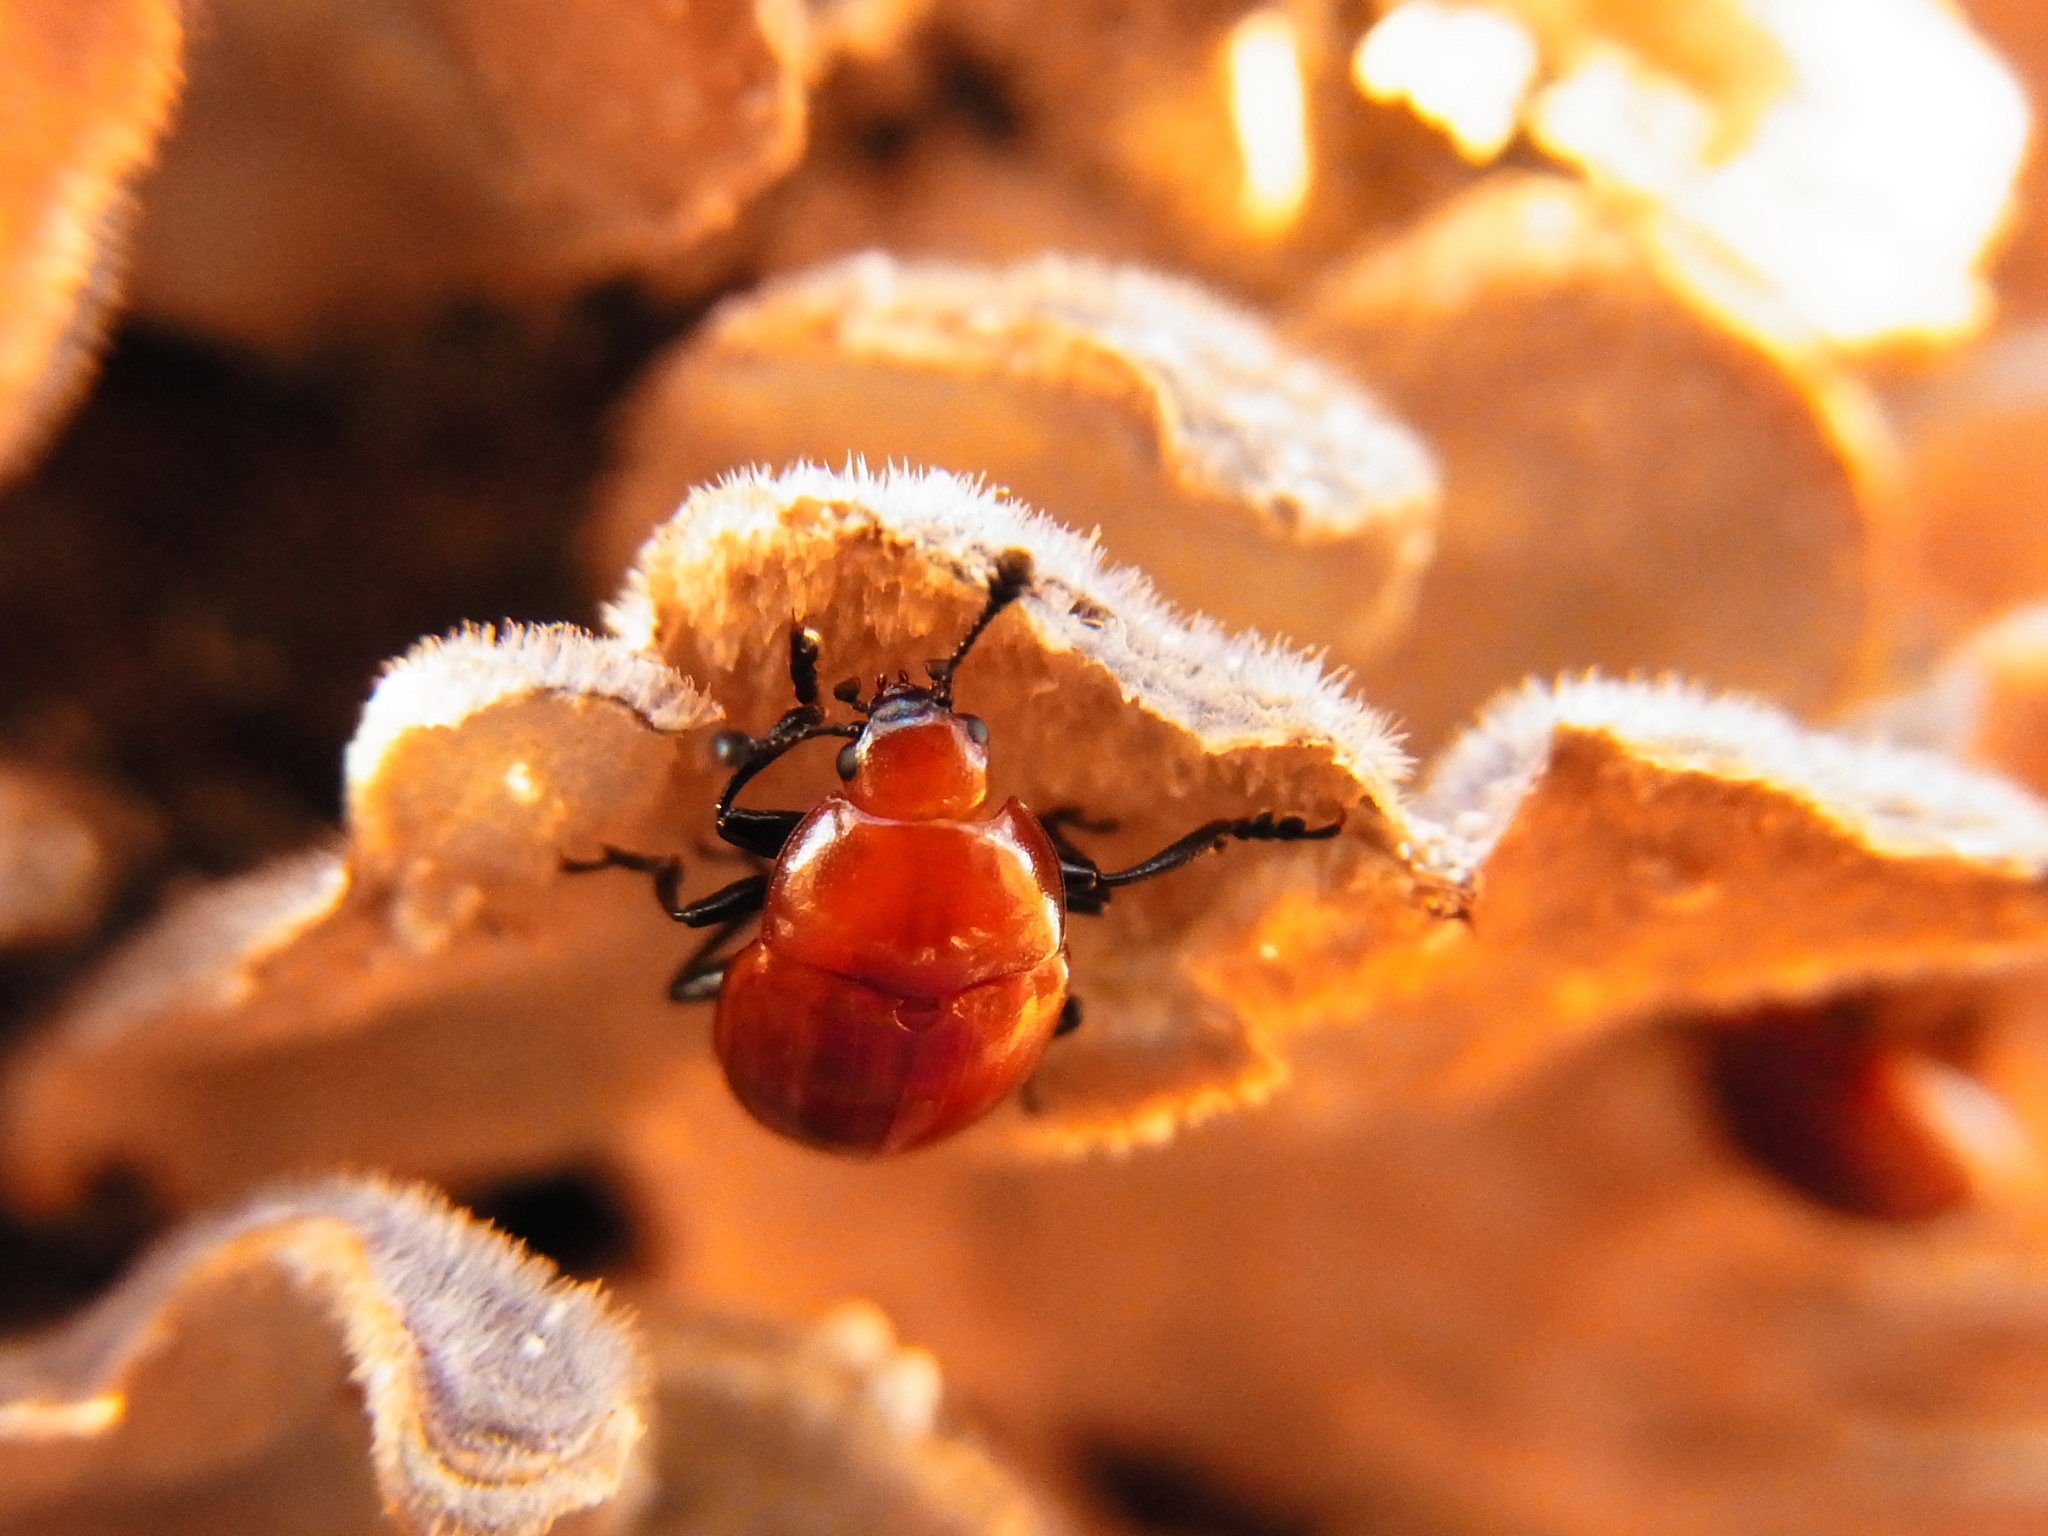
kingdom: Animalia
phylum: Arthropoda
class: Insecta
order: Coleoptera
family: Erotylidae
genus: Neotriplax
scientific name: Neotriplax
